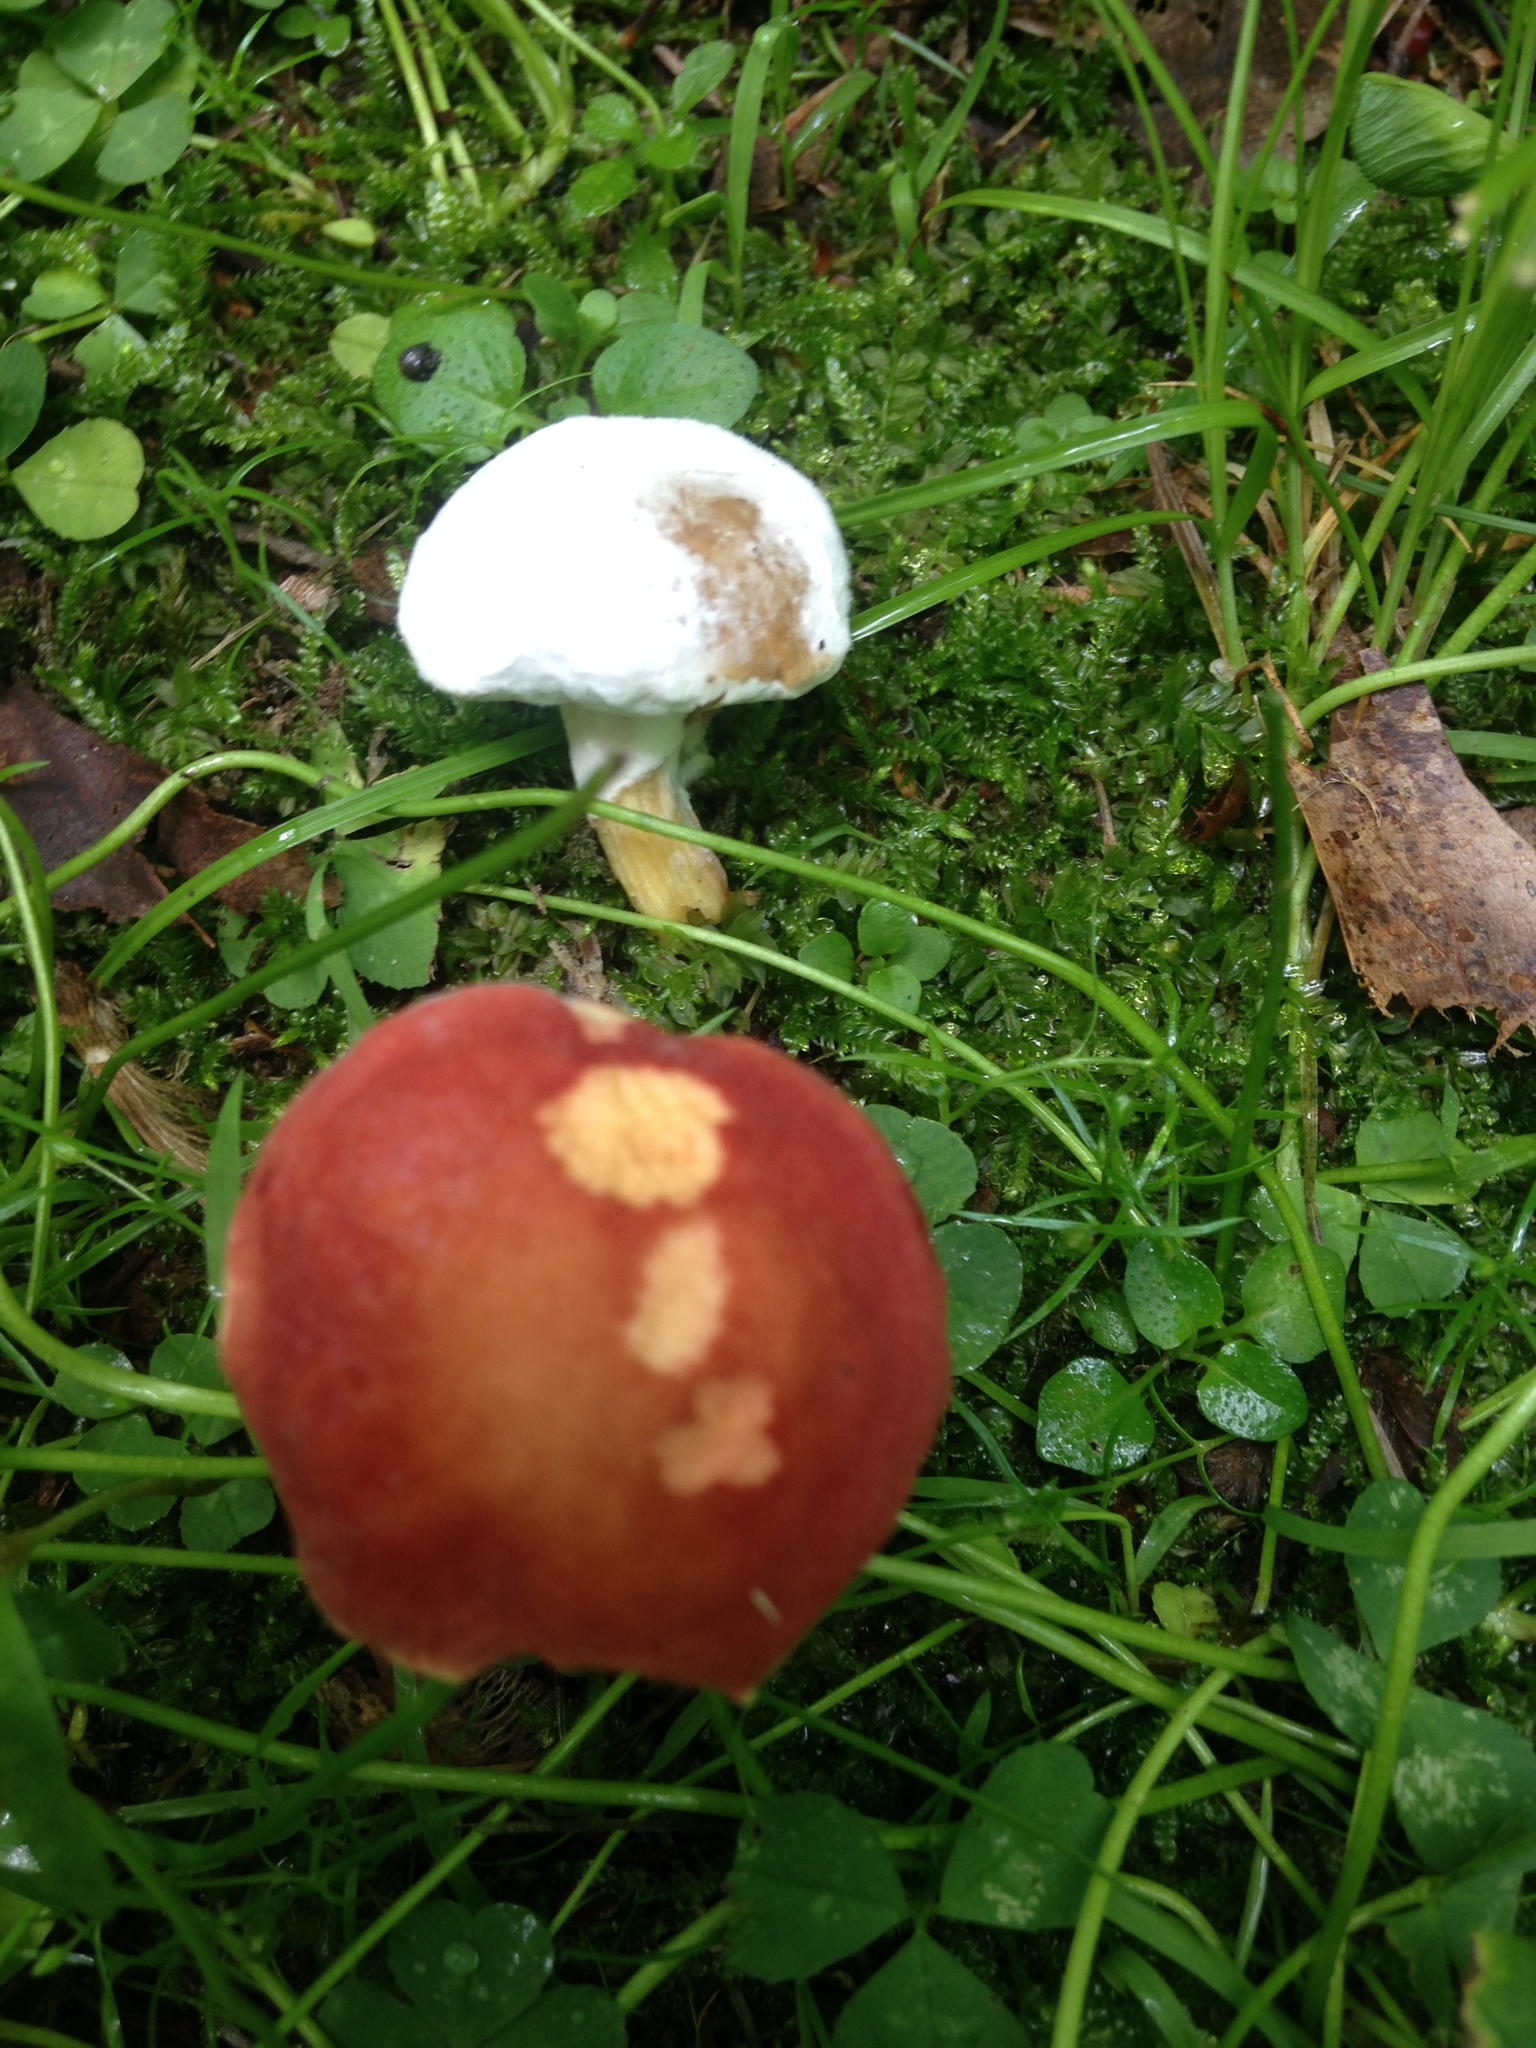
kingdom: Fungi
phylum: Ascomycota
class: Sordariomycetes
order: Hypocreales
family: Hypocreaceae
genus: Hypomyces
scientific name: Hypomyces microspermus
